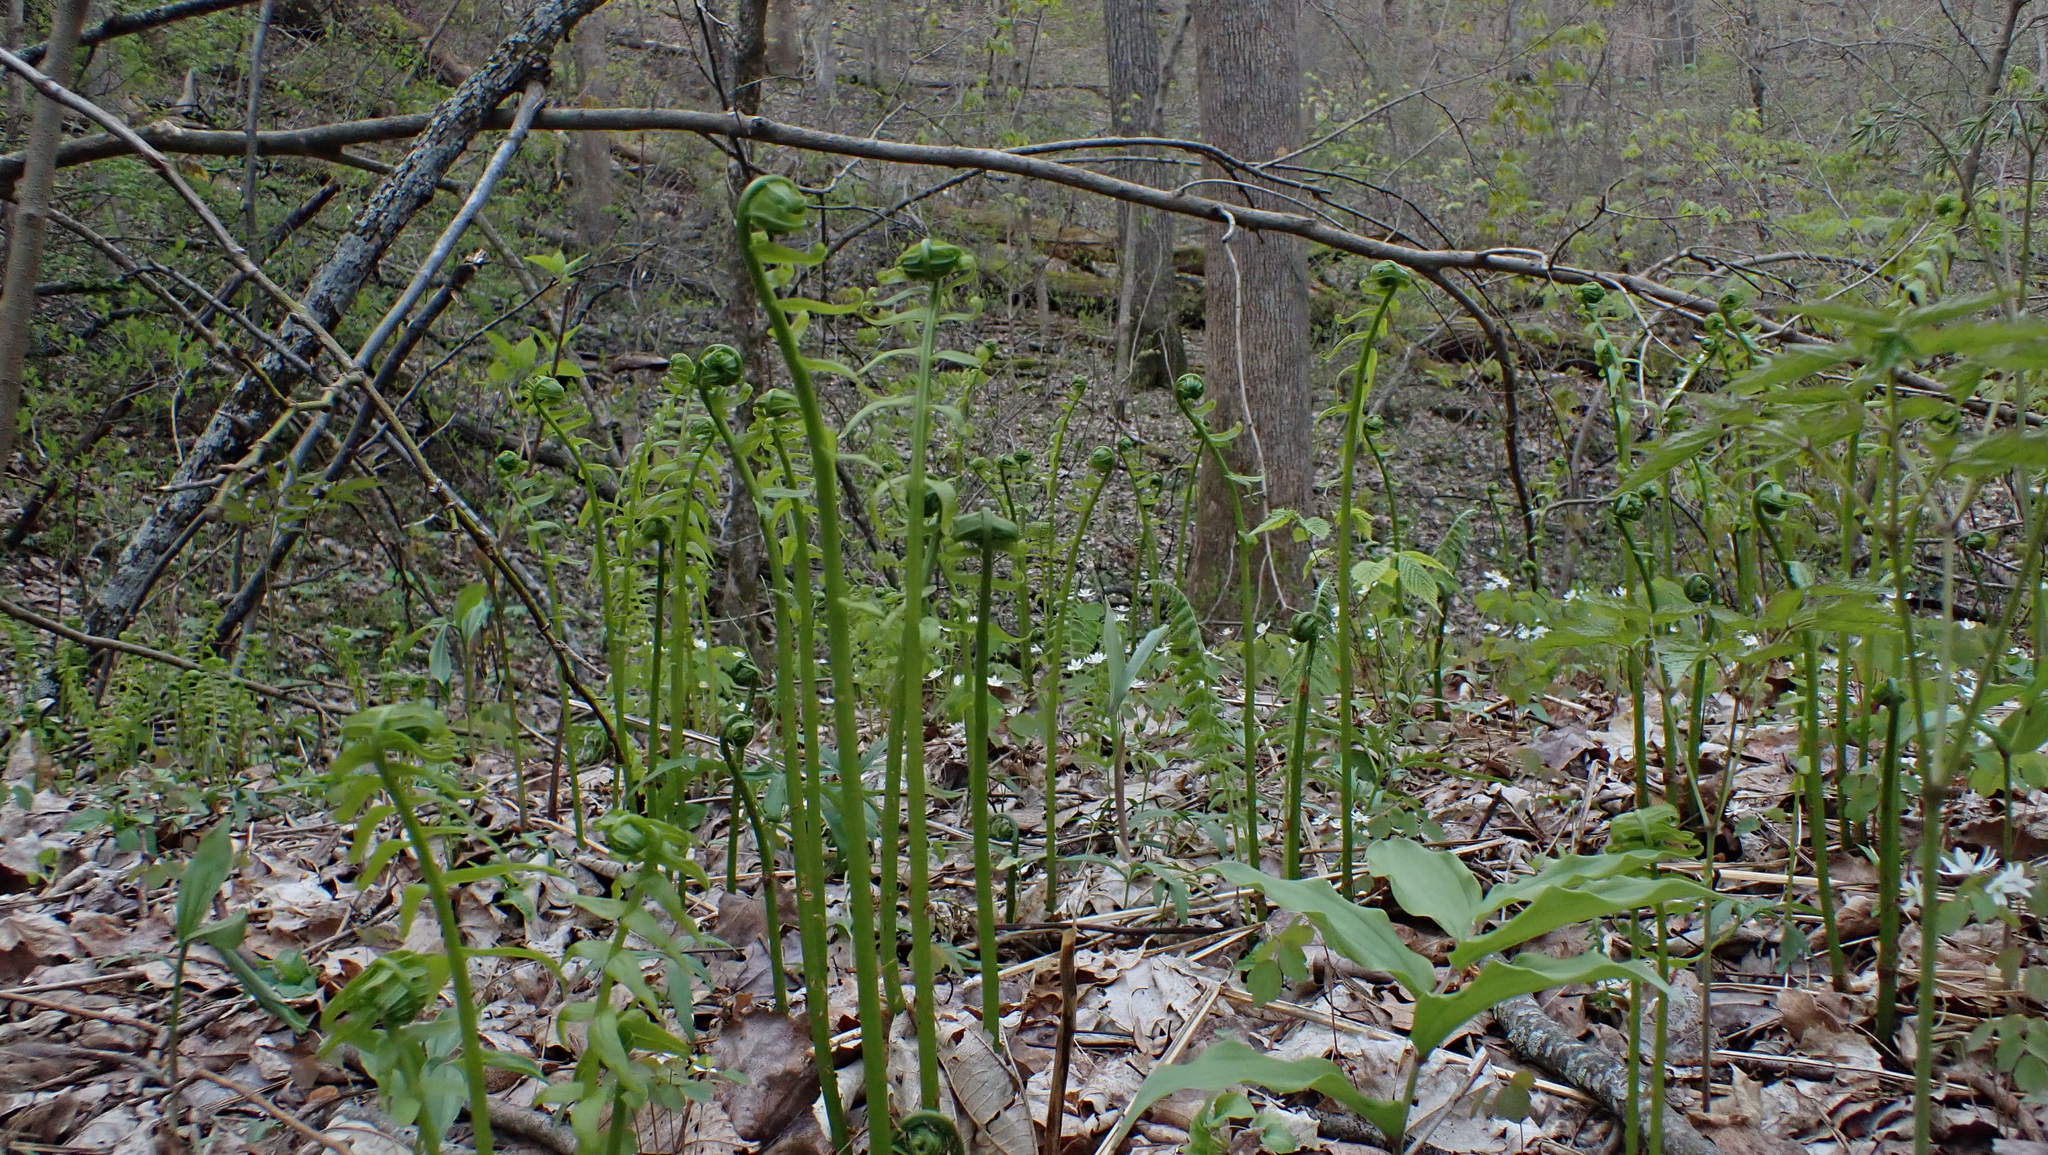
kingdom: Plantae
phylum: Tracheophyta
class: Polypodiopsida
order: Polypodiales
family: Diplaziopsidaceae
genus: Homalosorus
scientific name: Homalosorus pycnocarpos
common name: Glade fern
